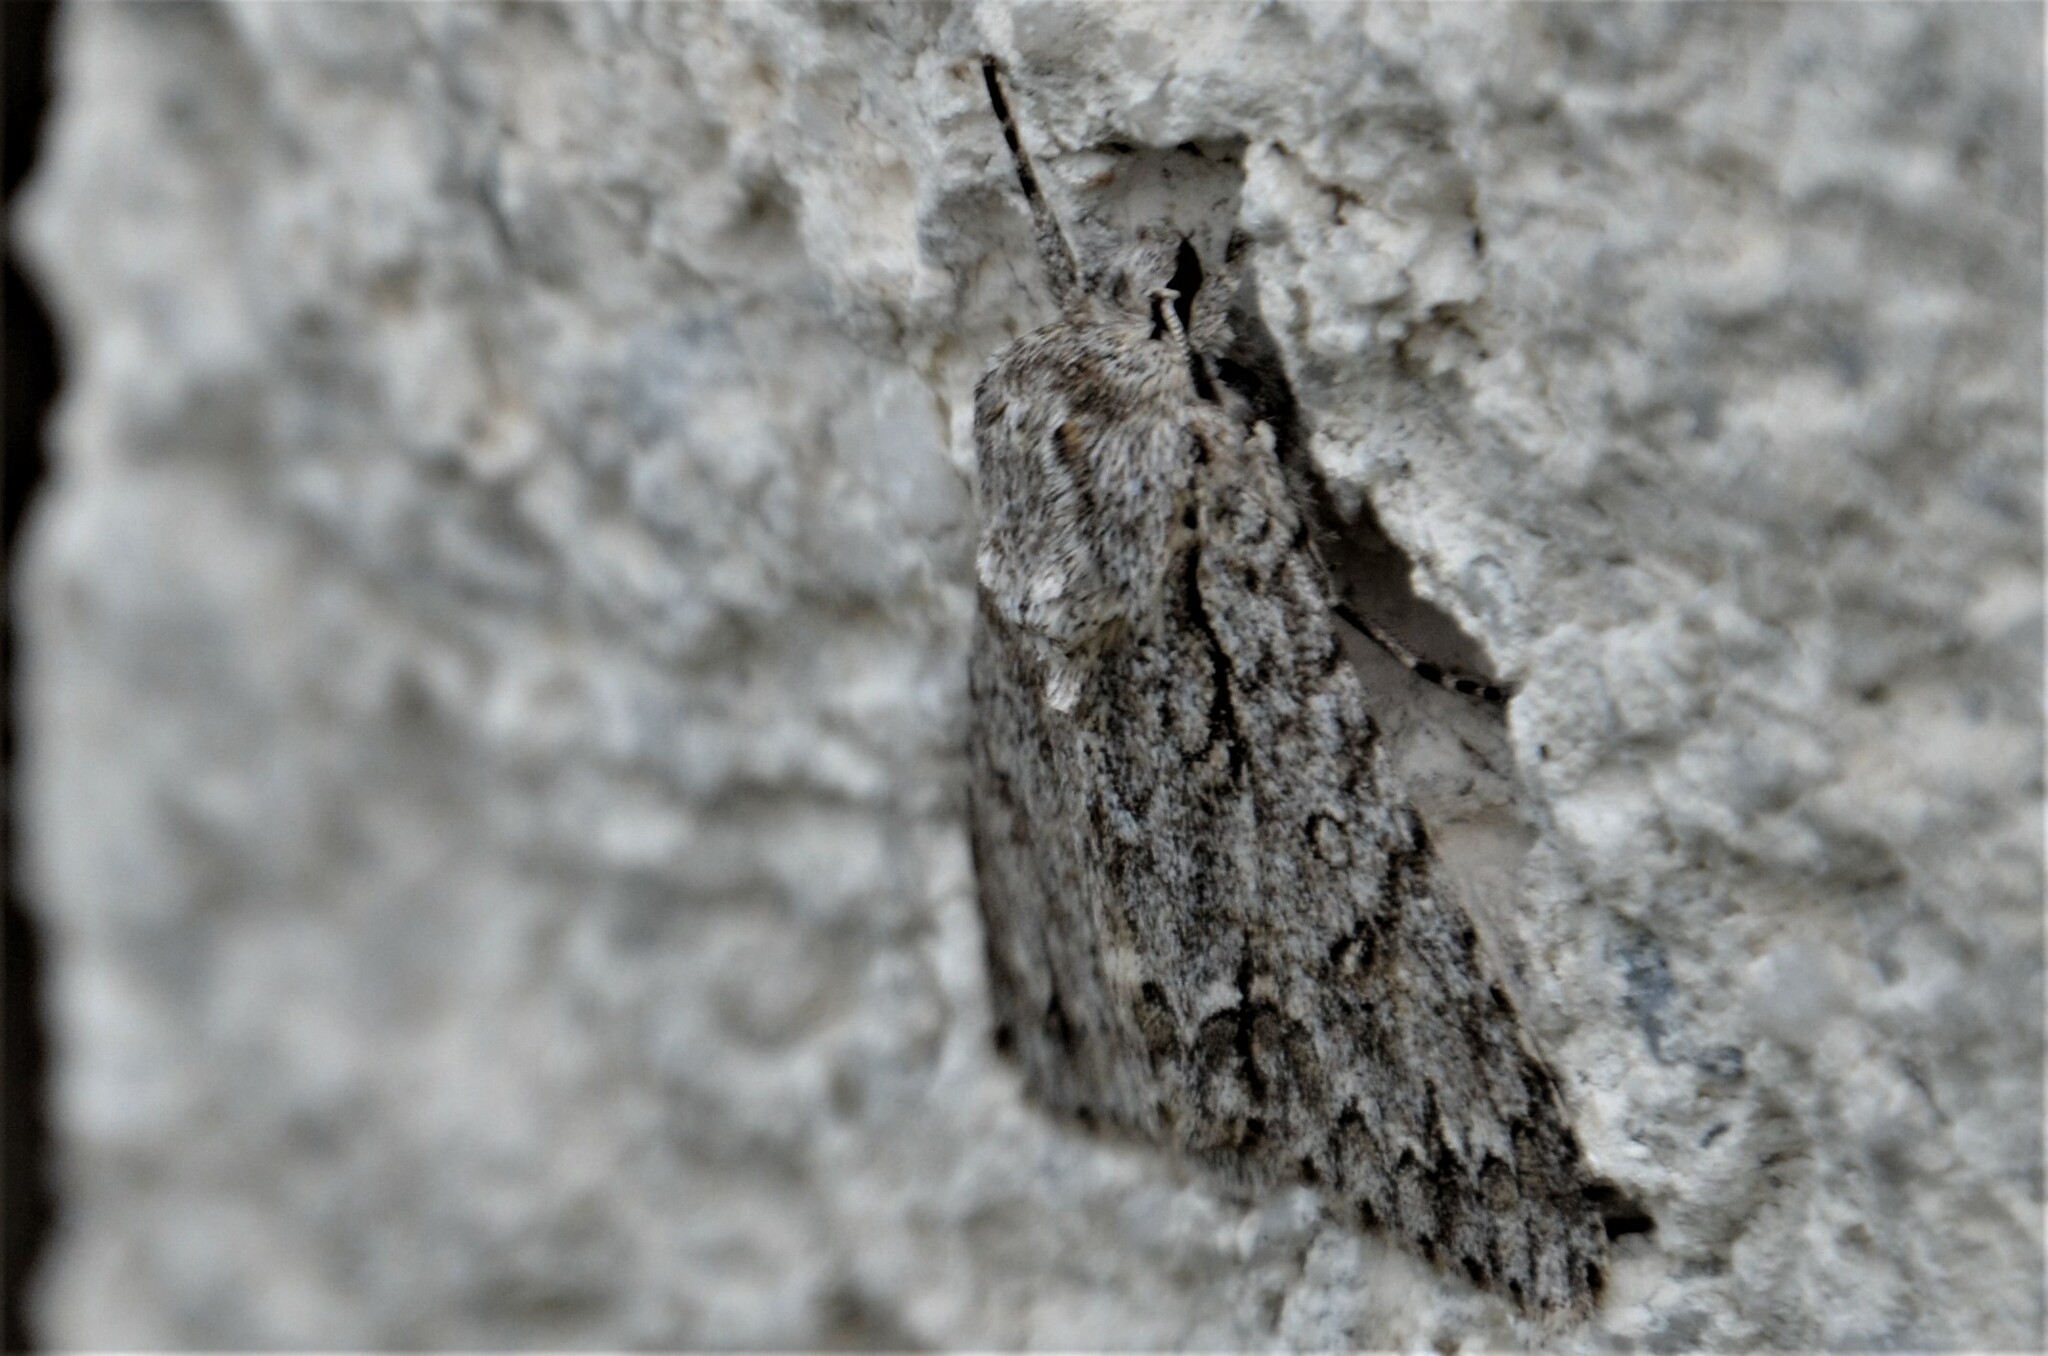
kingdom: Animalia
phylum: Arthropoda
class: Insecta
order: Lepidoptera
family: Noctuidae
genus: Acronicta
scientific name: Acronicta aceris
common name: Sycamore
